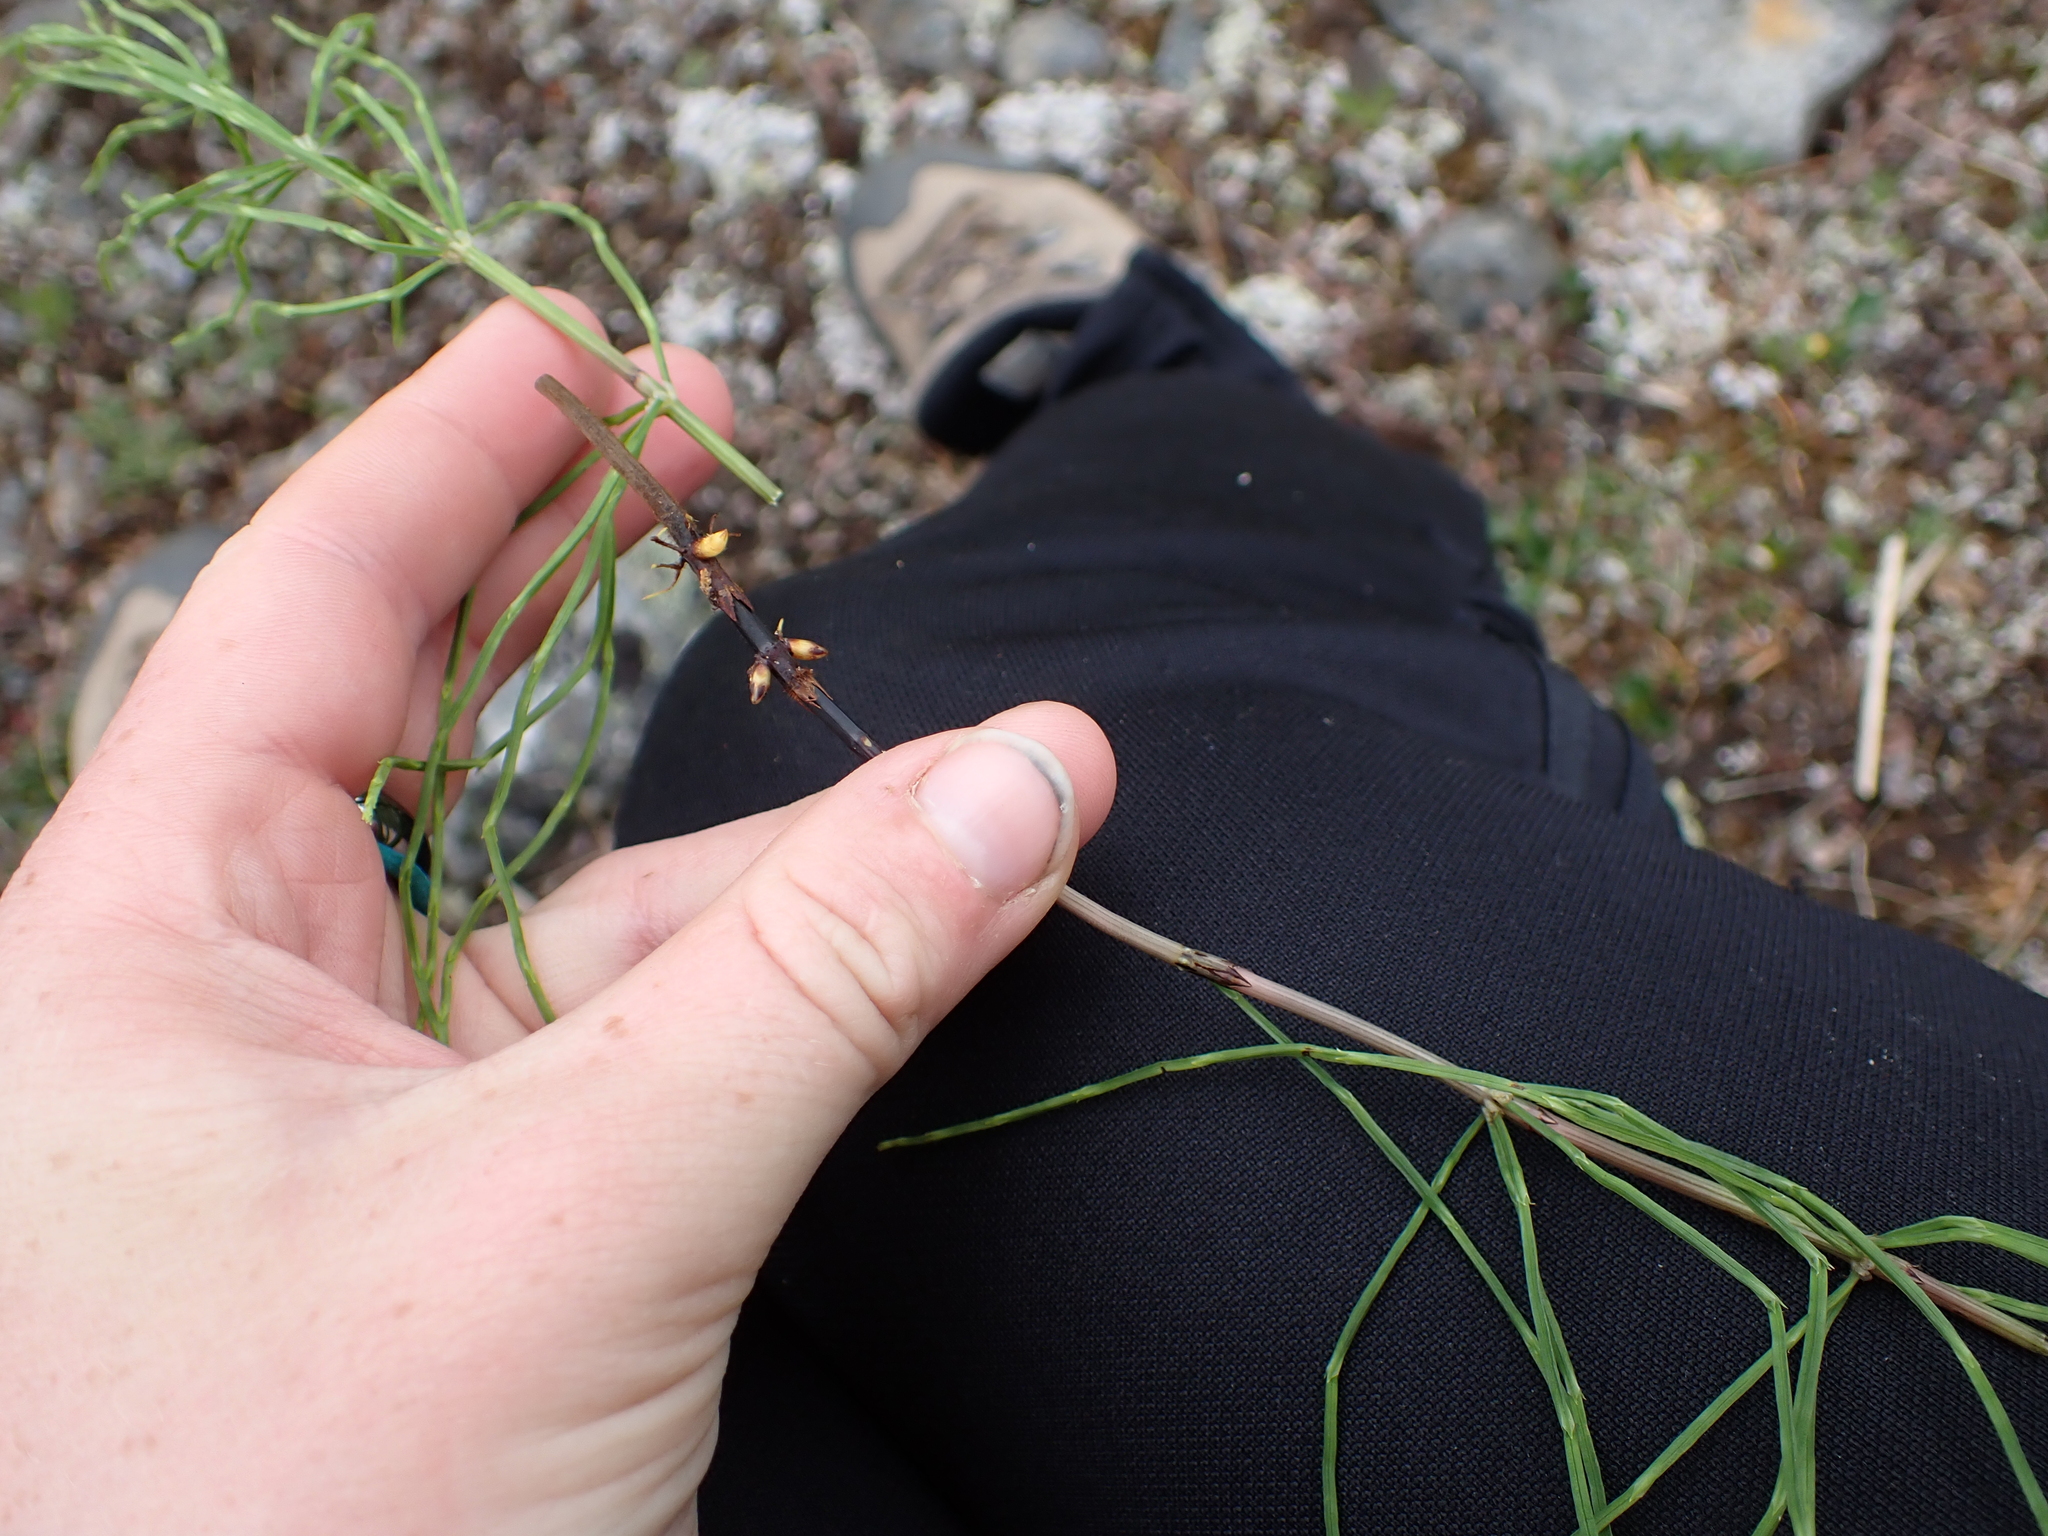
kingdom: Plantae
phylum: Tracheophyta
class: Polypodiopsida
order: Equisetales
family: Equisetaceae
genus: Equisetum
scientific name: Equisetum arvense
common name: Field horsetail
